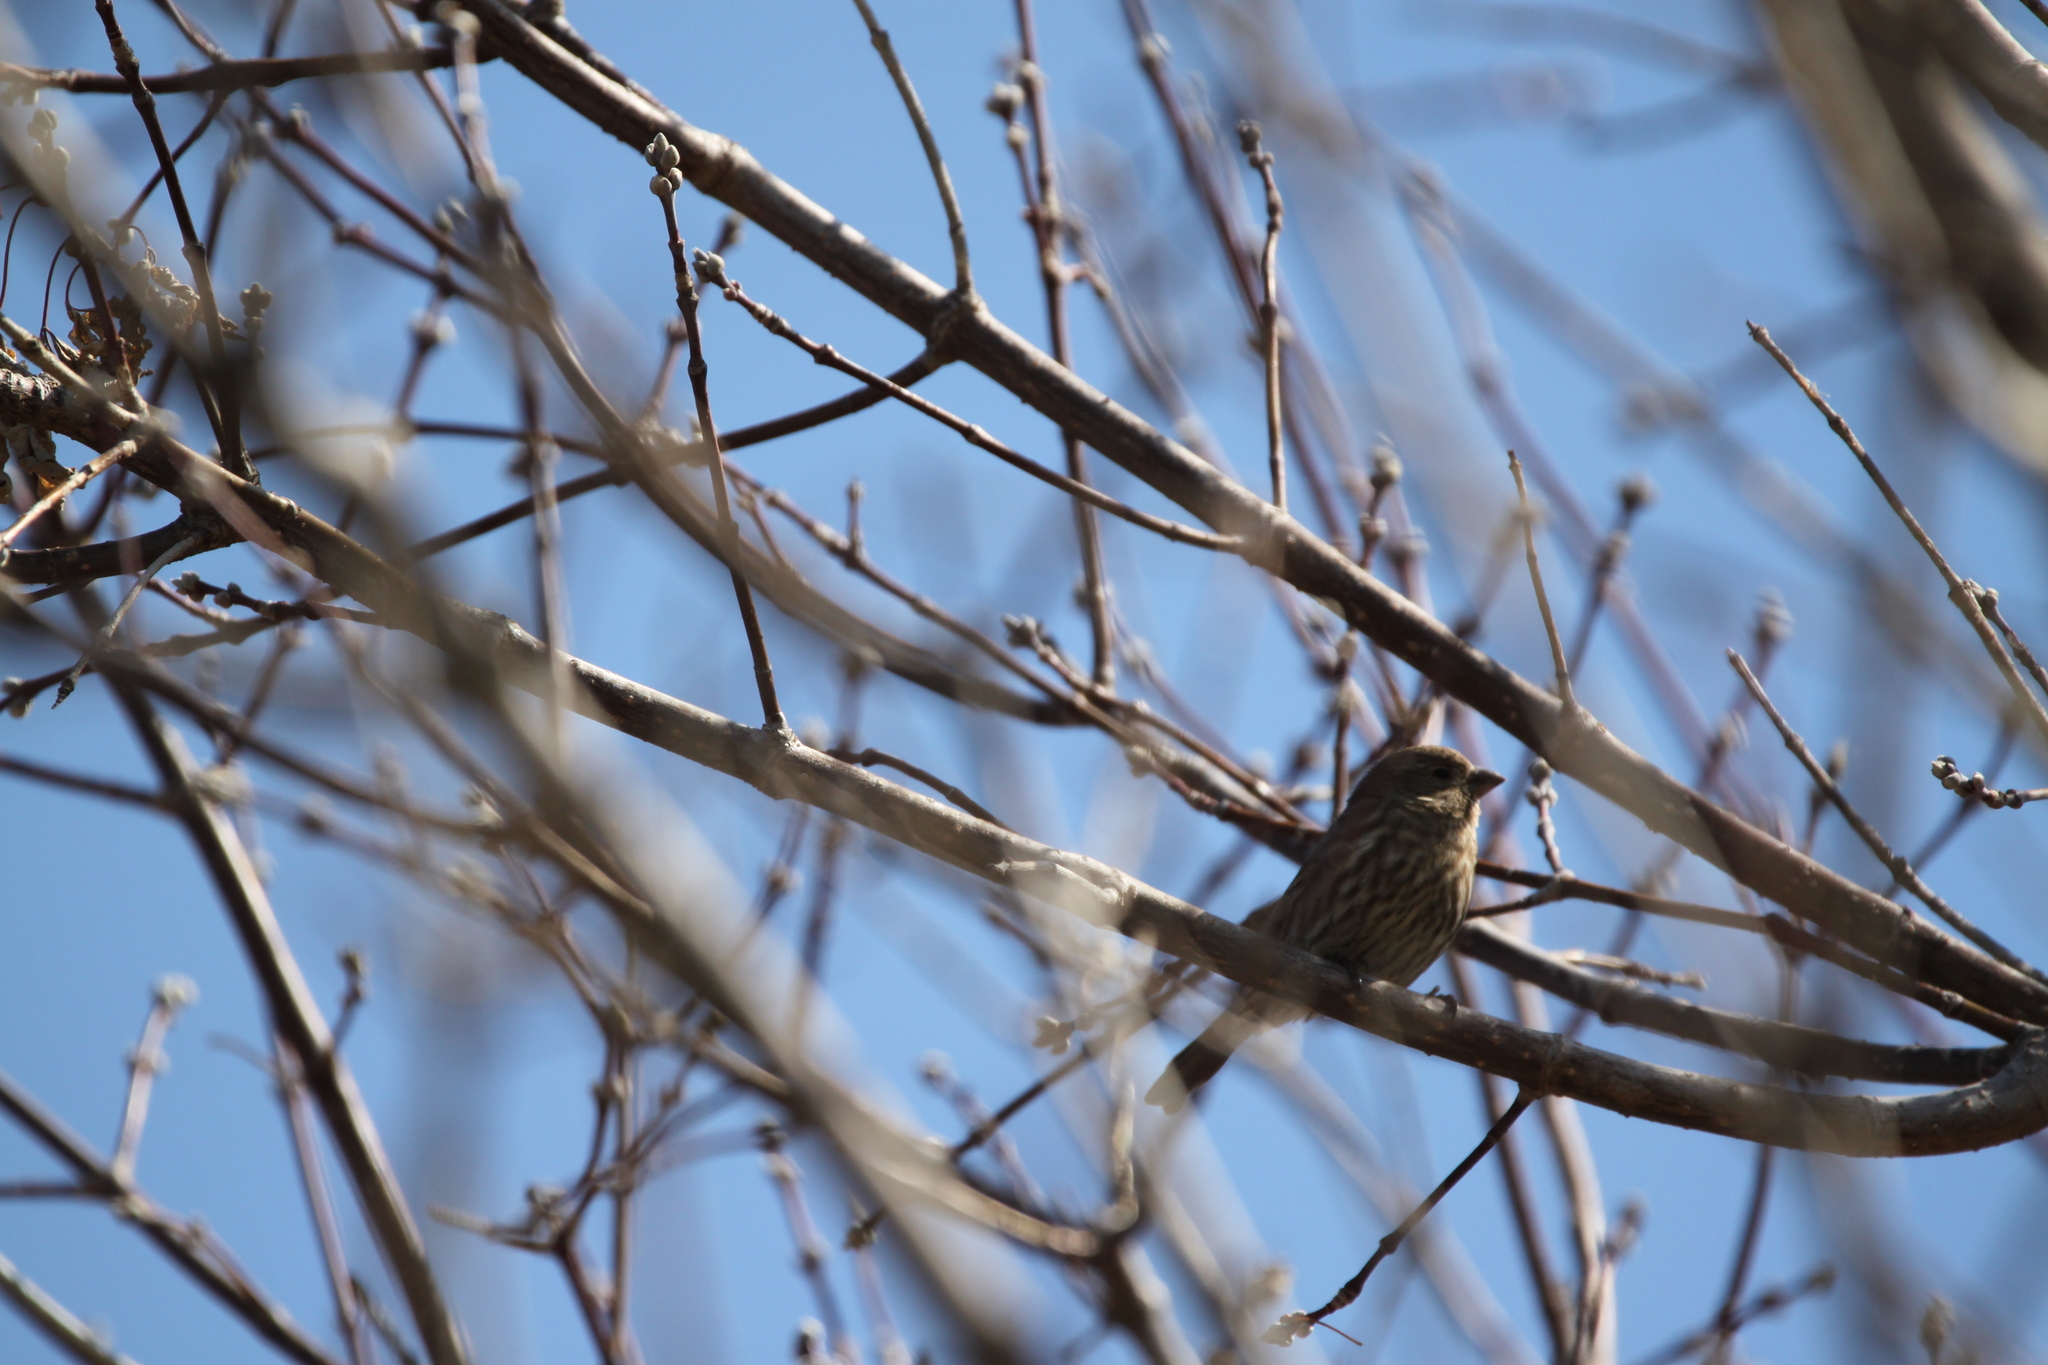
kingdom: Animalia
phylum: Chordata
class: Aves
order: Passeriformes
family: Fringillidae
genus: Haemorhous
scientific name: Haemorhous mexicanus
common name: House finch
